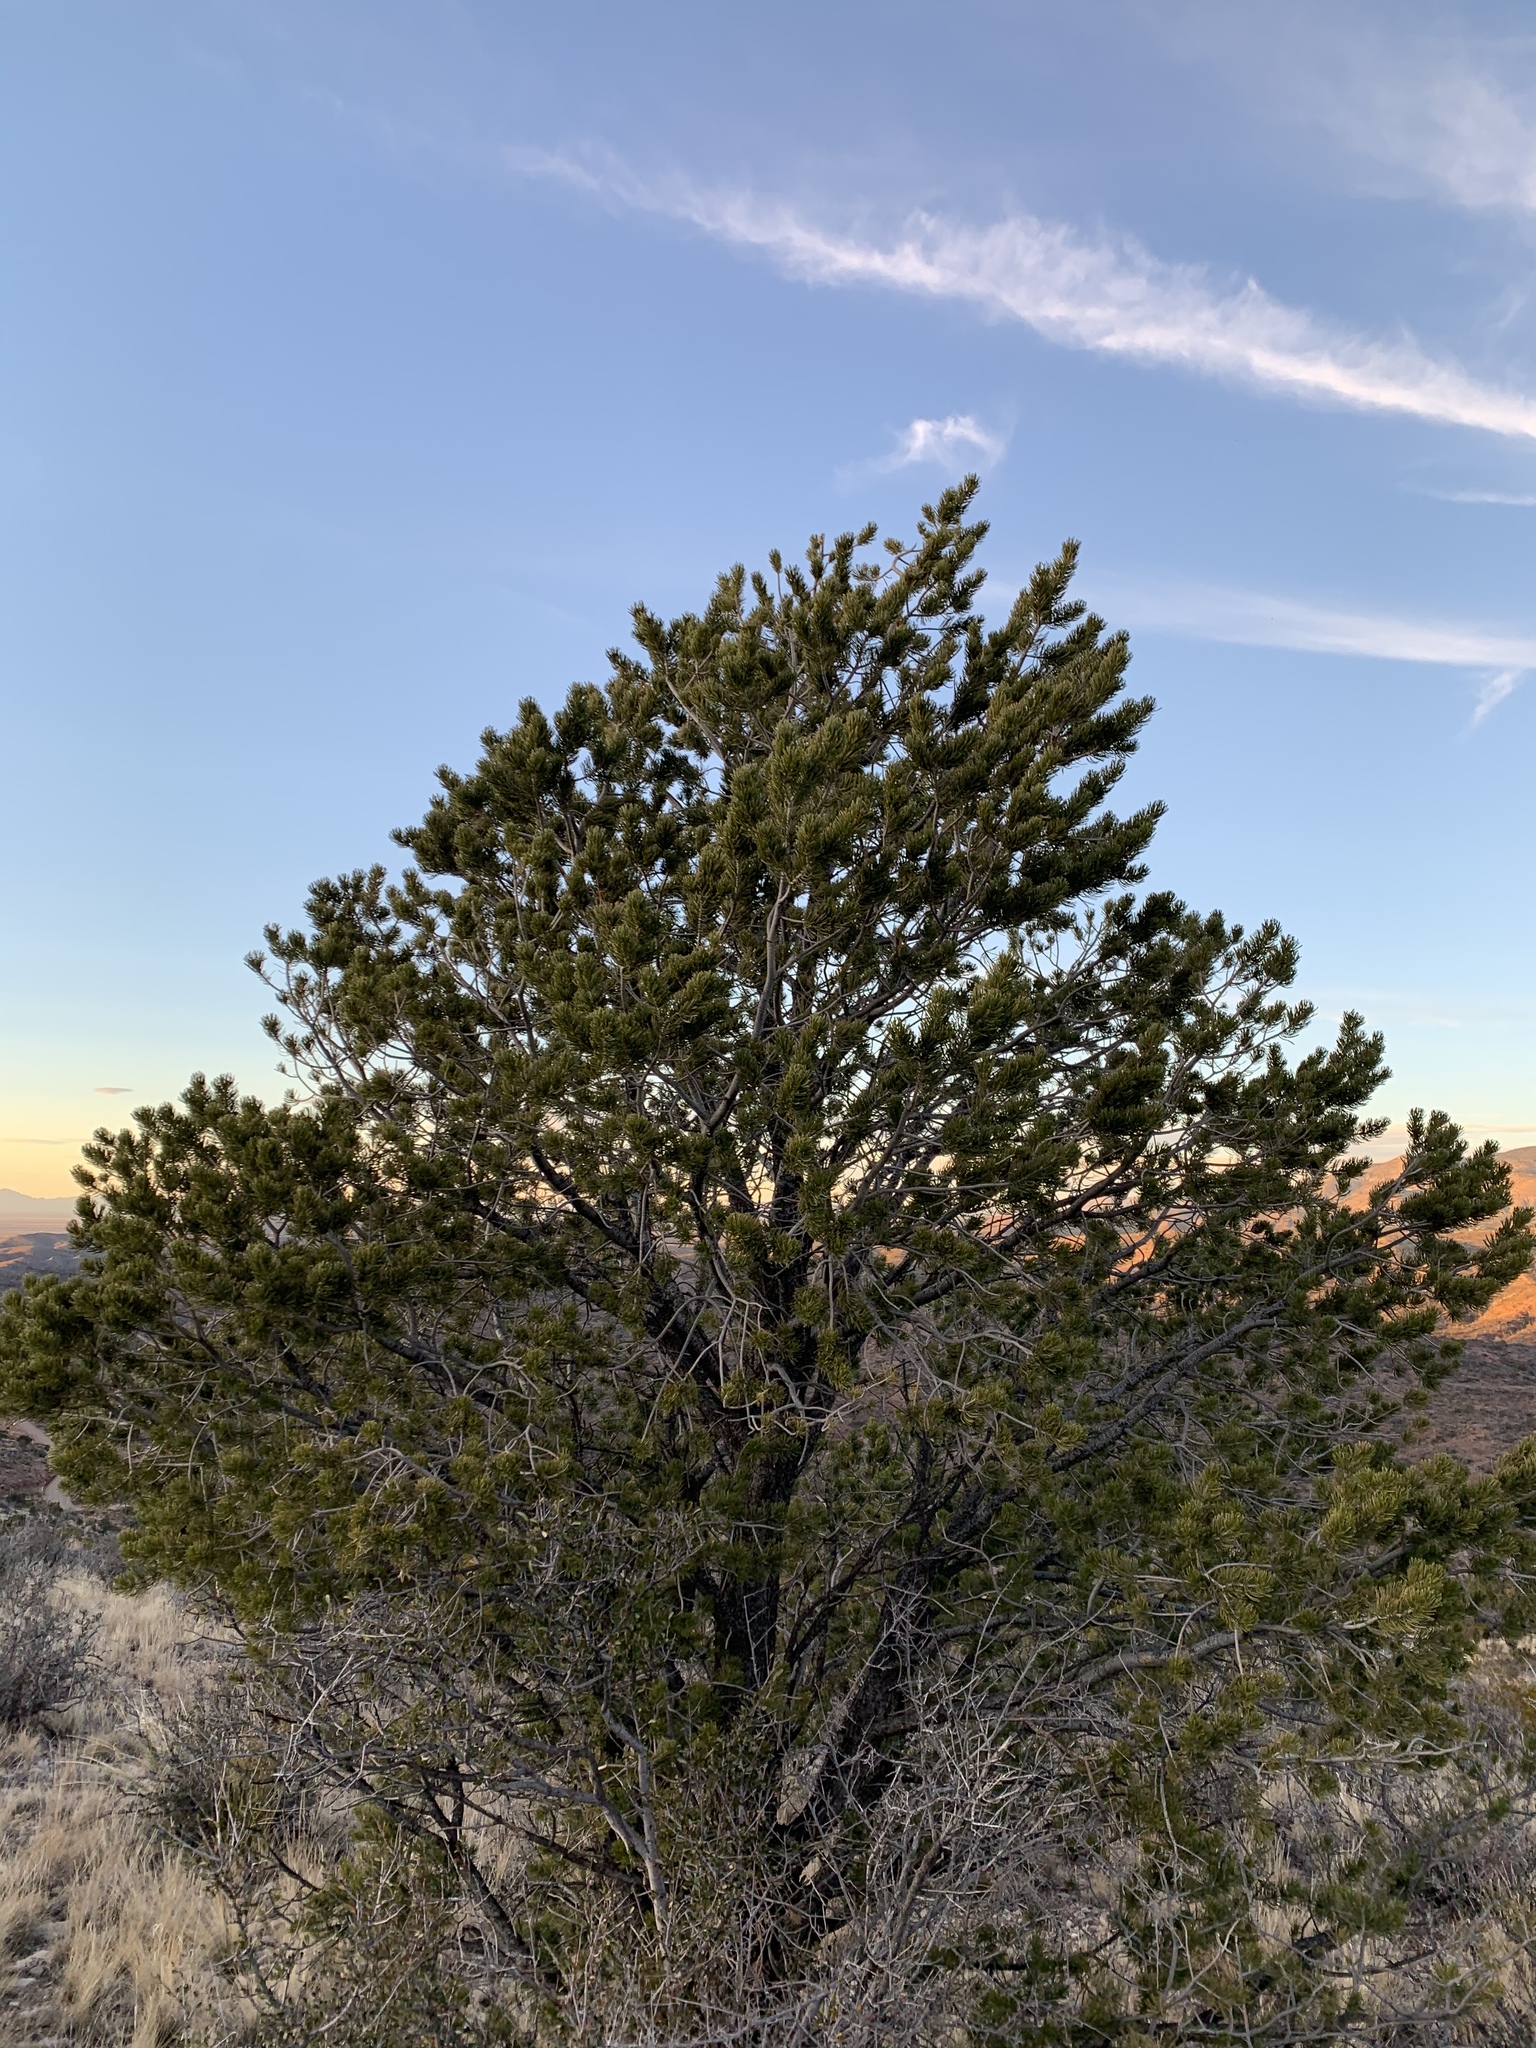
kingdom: Plantae
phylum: Tracheophyta
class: Pinopsida
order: Pinales
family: Pinaceae
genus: Pinus
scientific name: Pinus edulis
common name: Colorado pinyon
